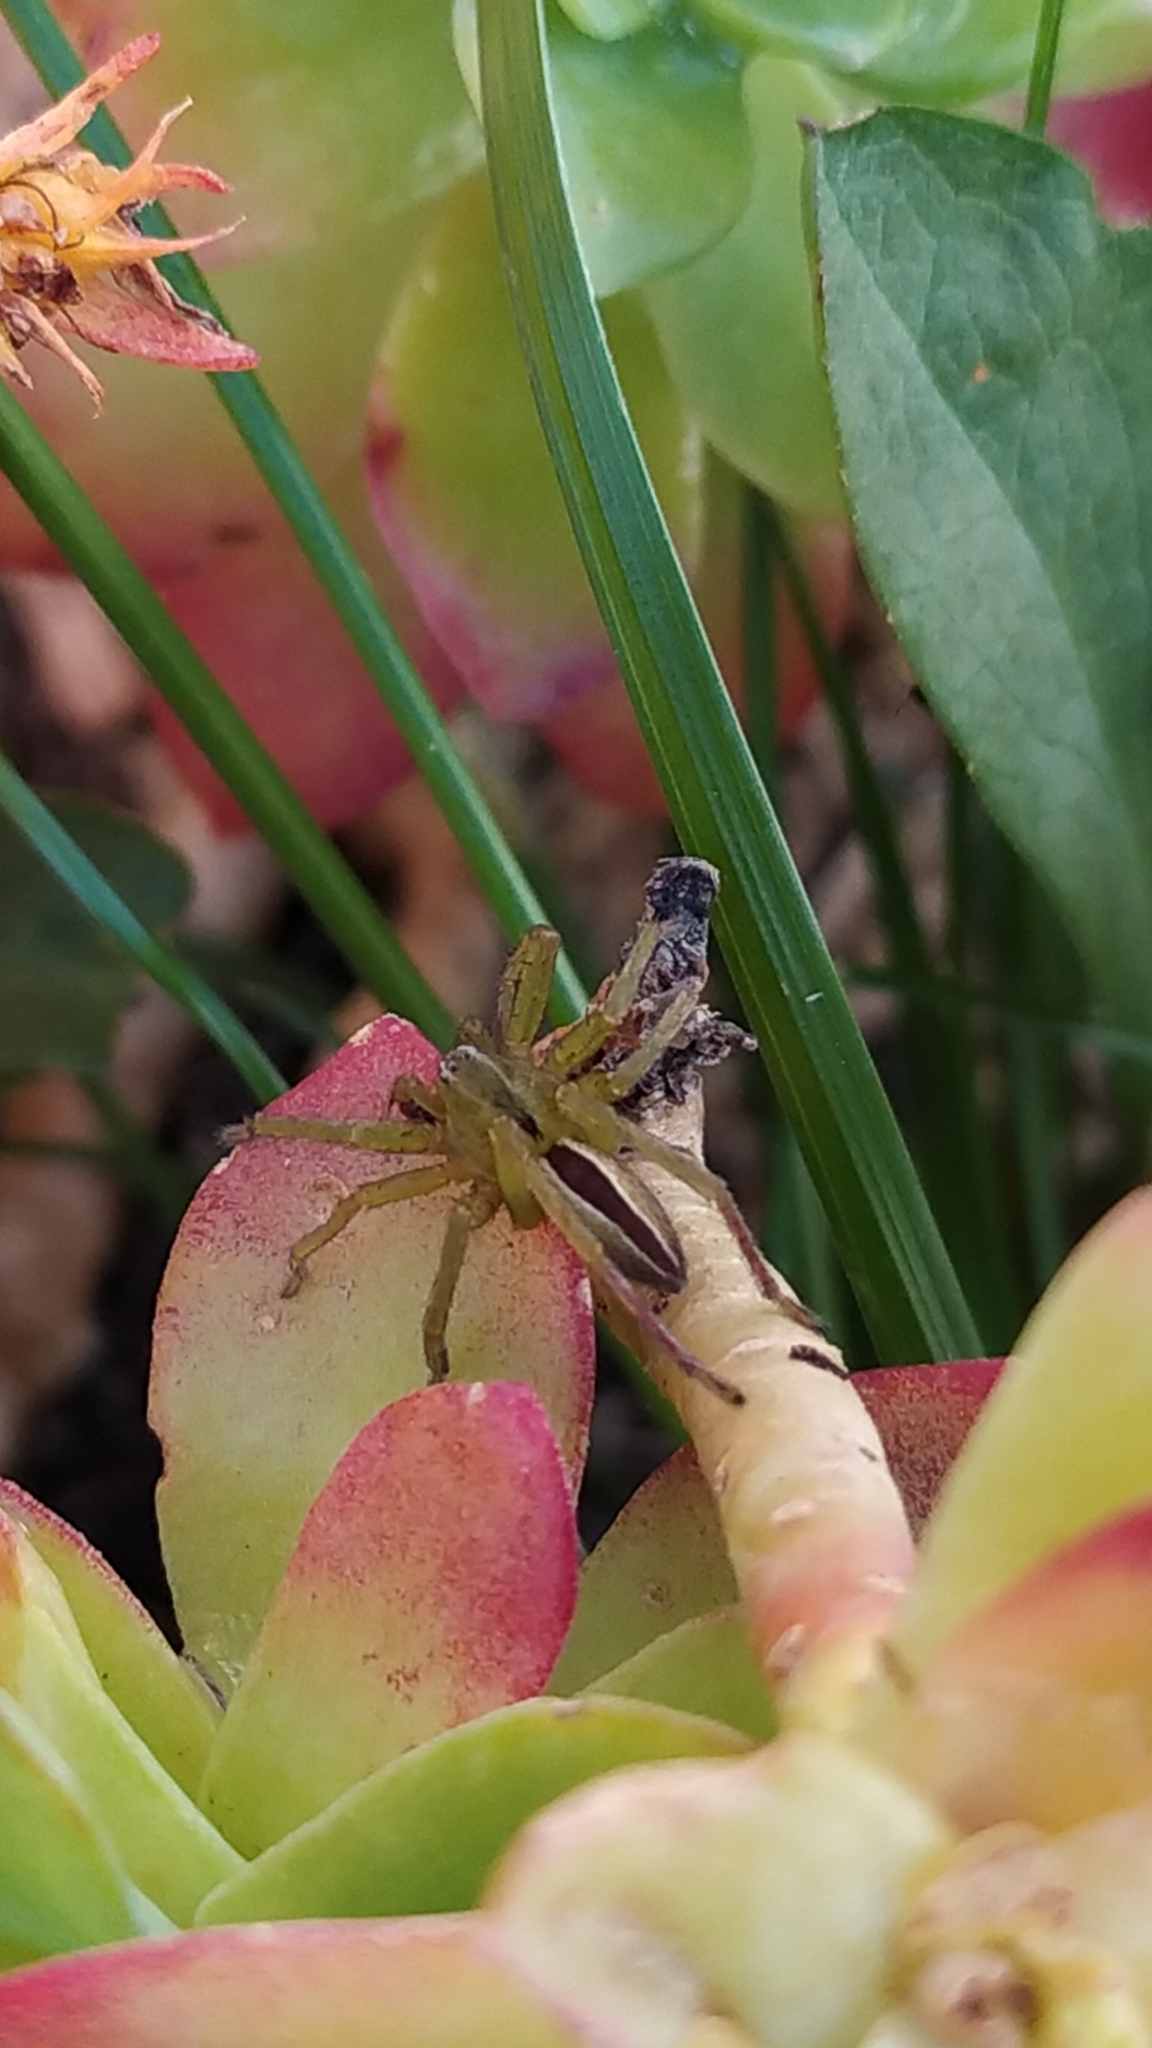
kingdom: Animalia
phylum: Arthropoda
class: Arachnida
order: Araneae
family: Sparassidae
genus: Micrommata
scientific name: Micrommata ligurina
